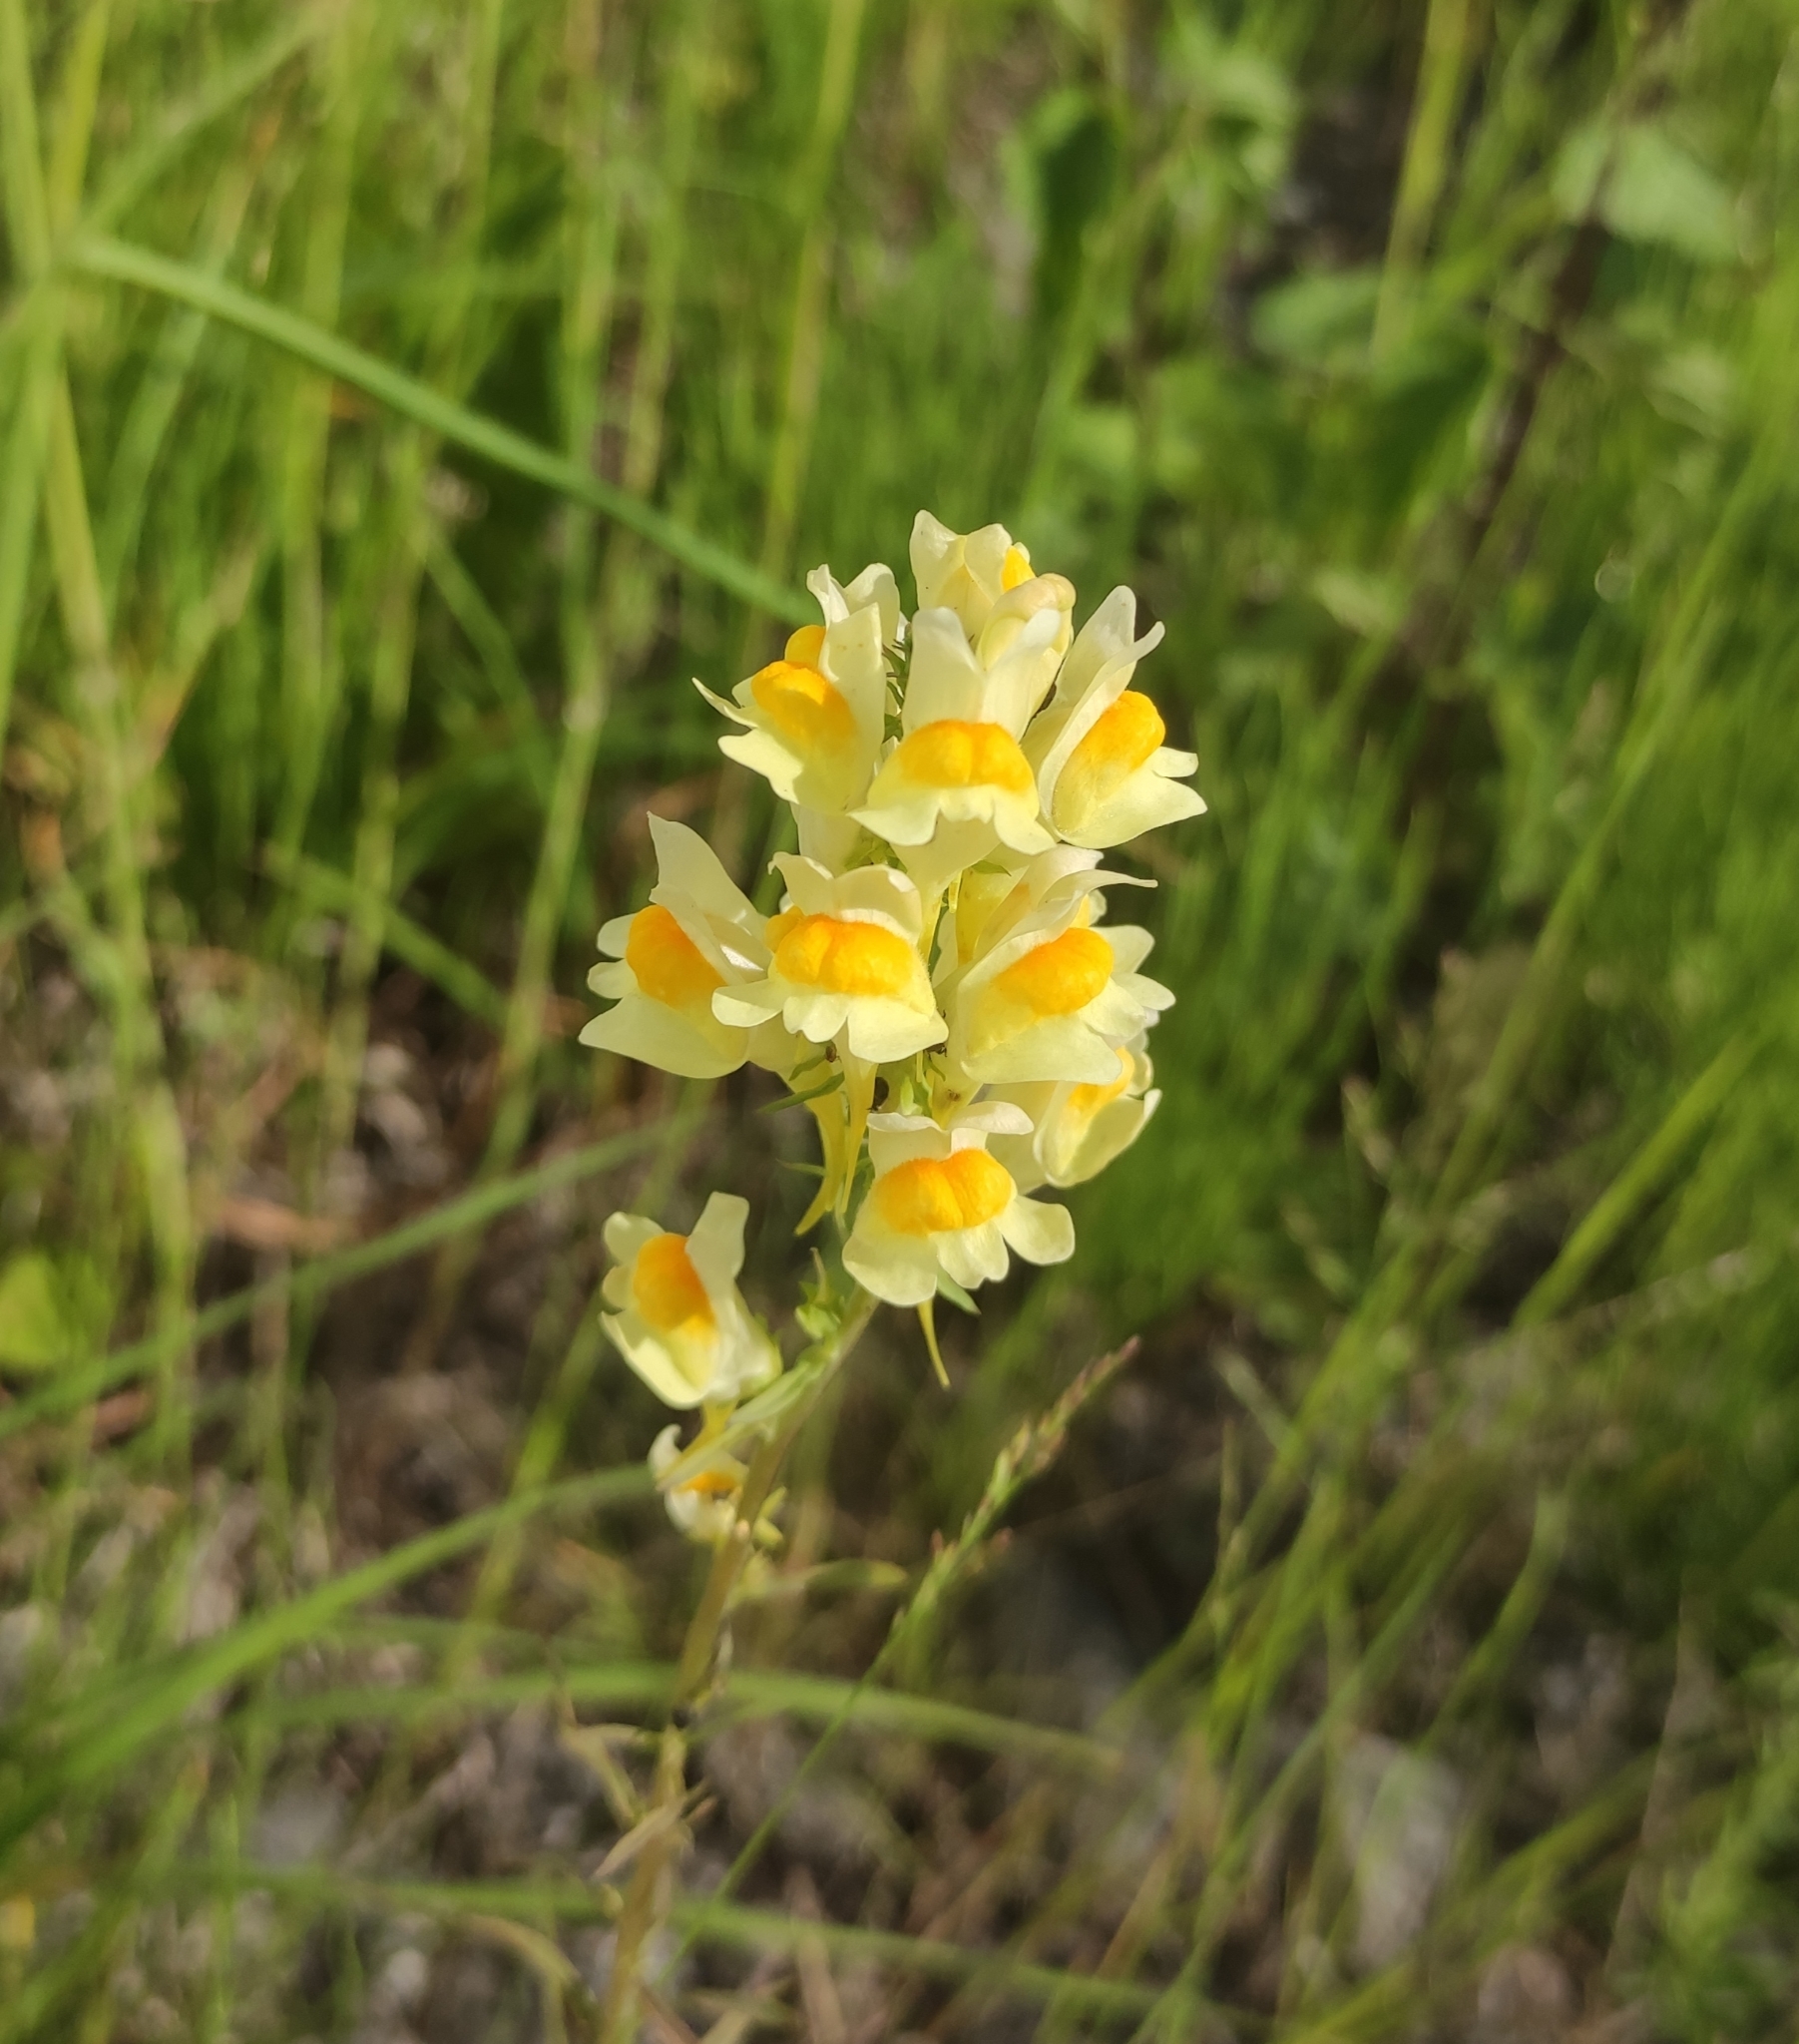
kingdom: Plantae
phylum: Tracheophyta
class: Magnoliopsida
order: Lamiales
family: Plantaginaceae
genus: Linaria
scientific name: Linaria vulgaris
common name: Butter and eggs
